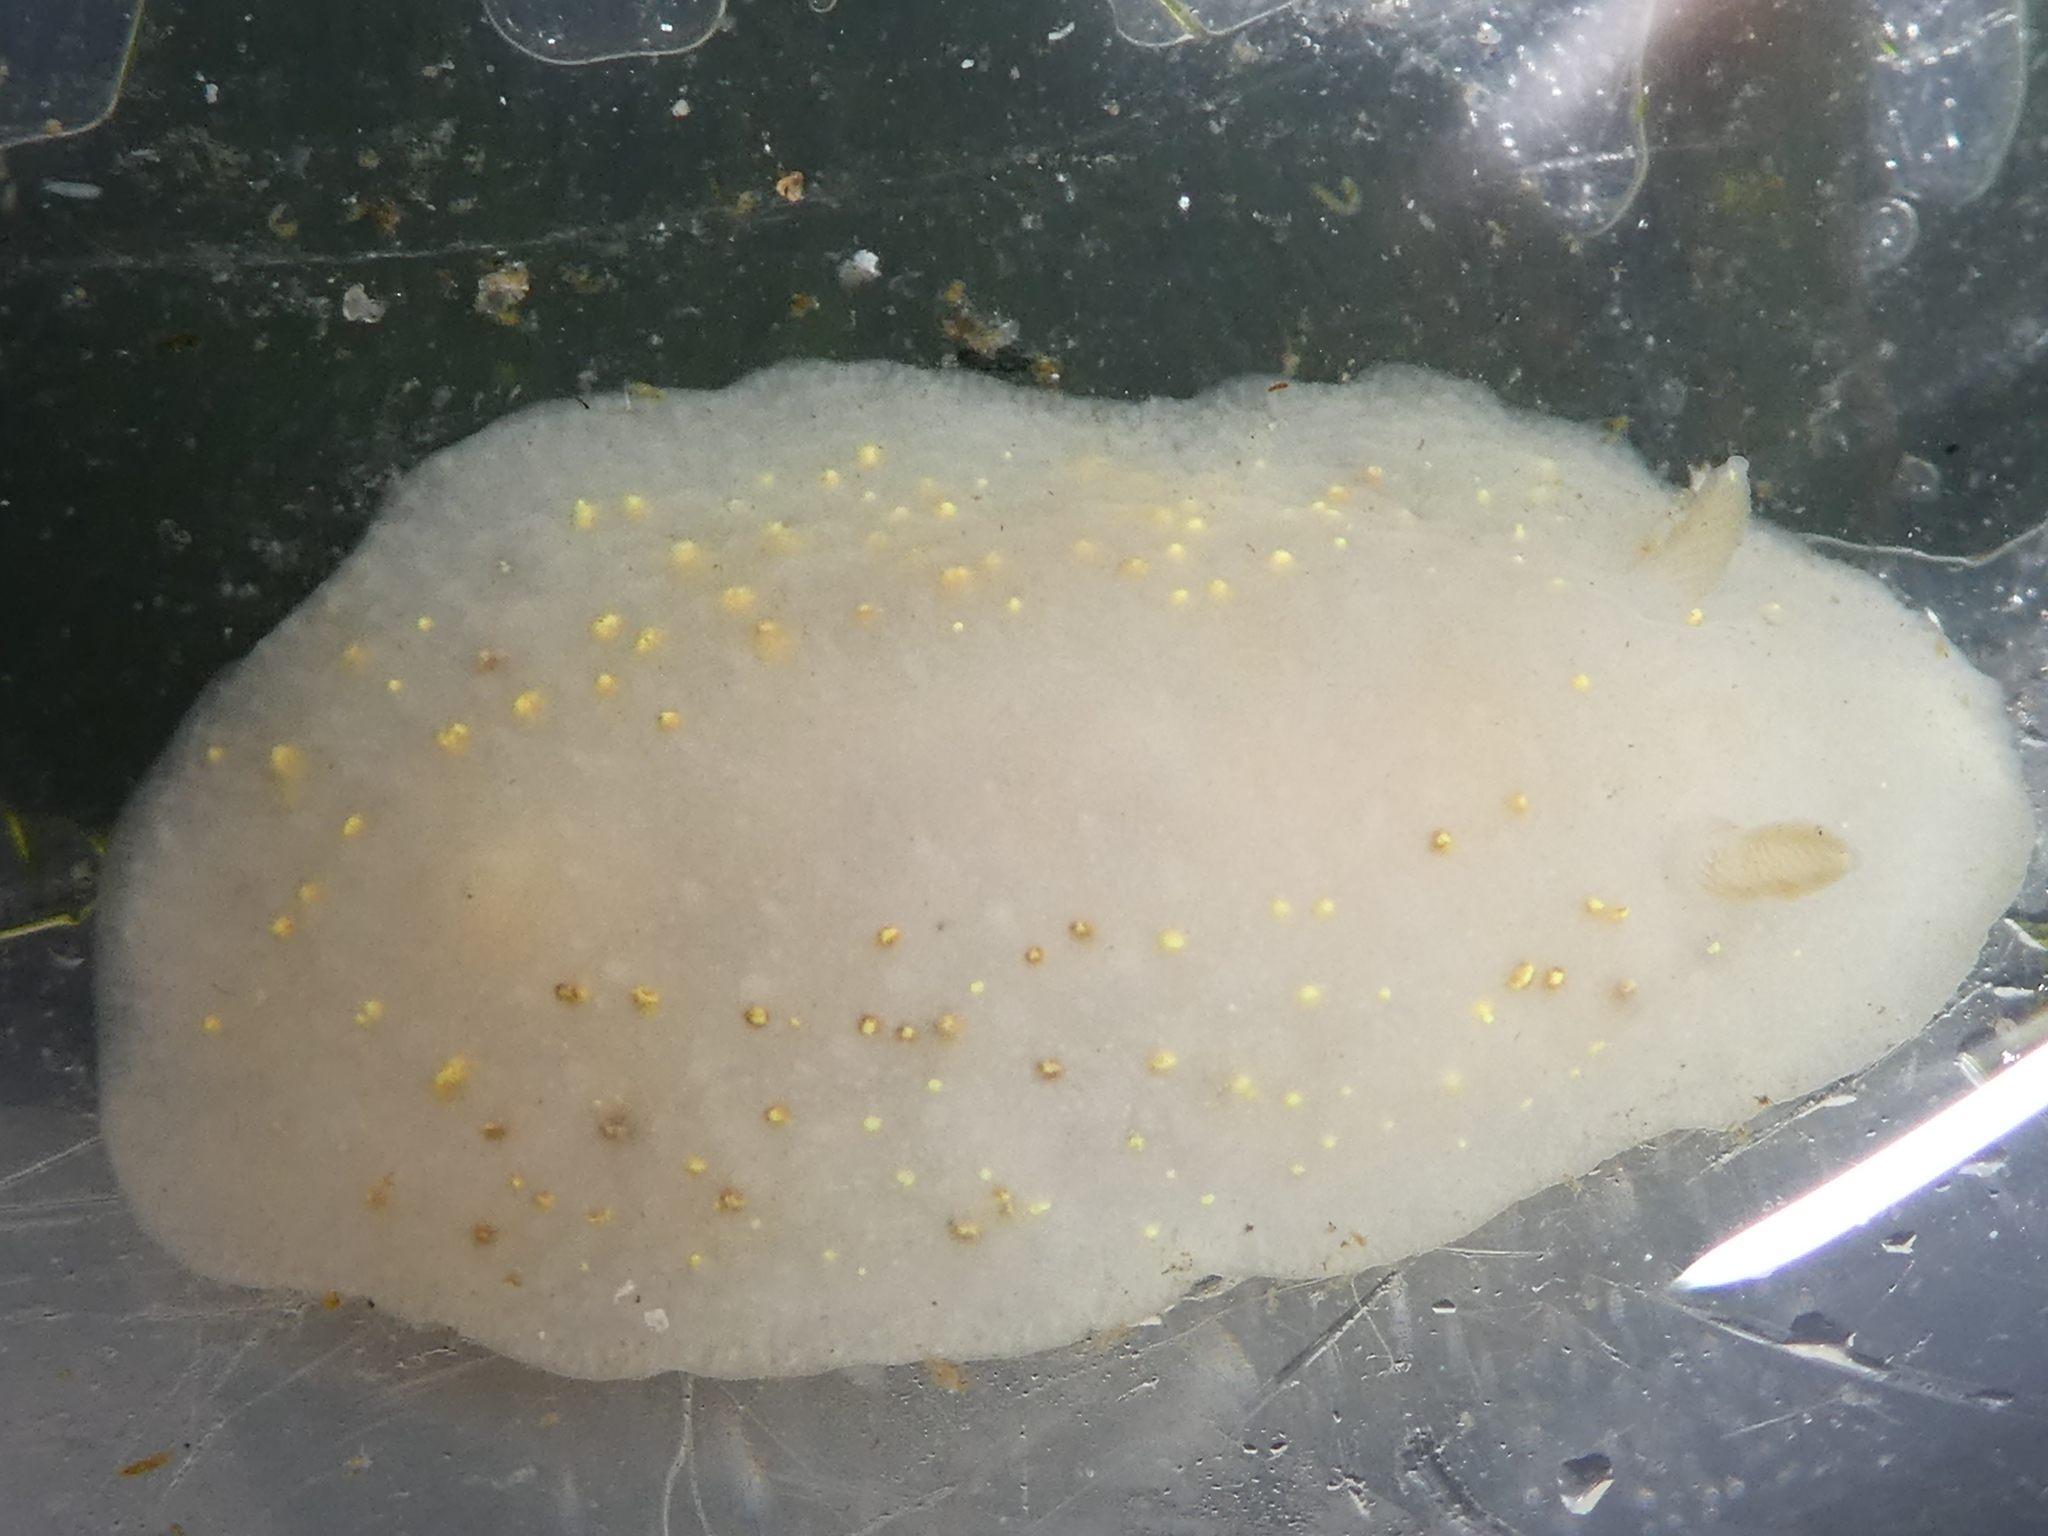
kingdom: Animalia
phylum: Mollusca
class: Gastropoda
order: Nudibranchia
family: Cadlinidae
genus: Cadlina
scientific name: Cadlina sparsa
